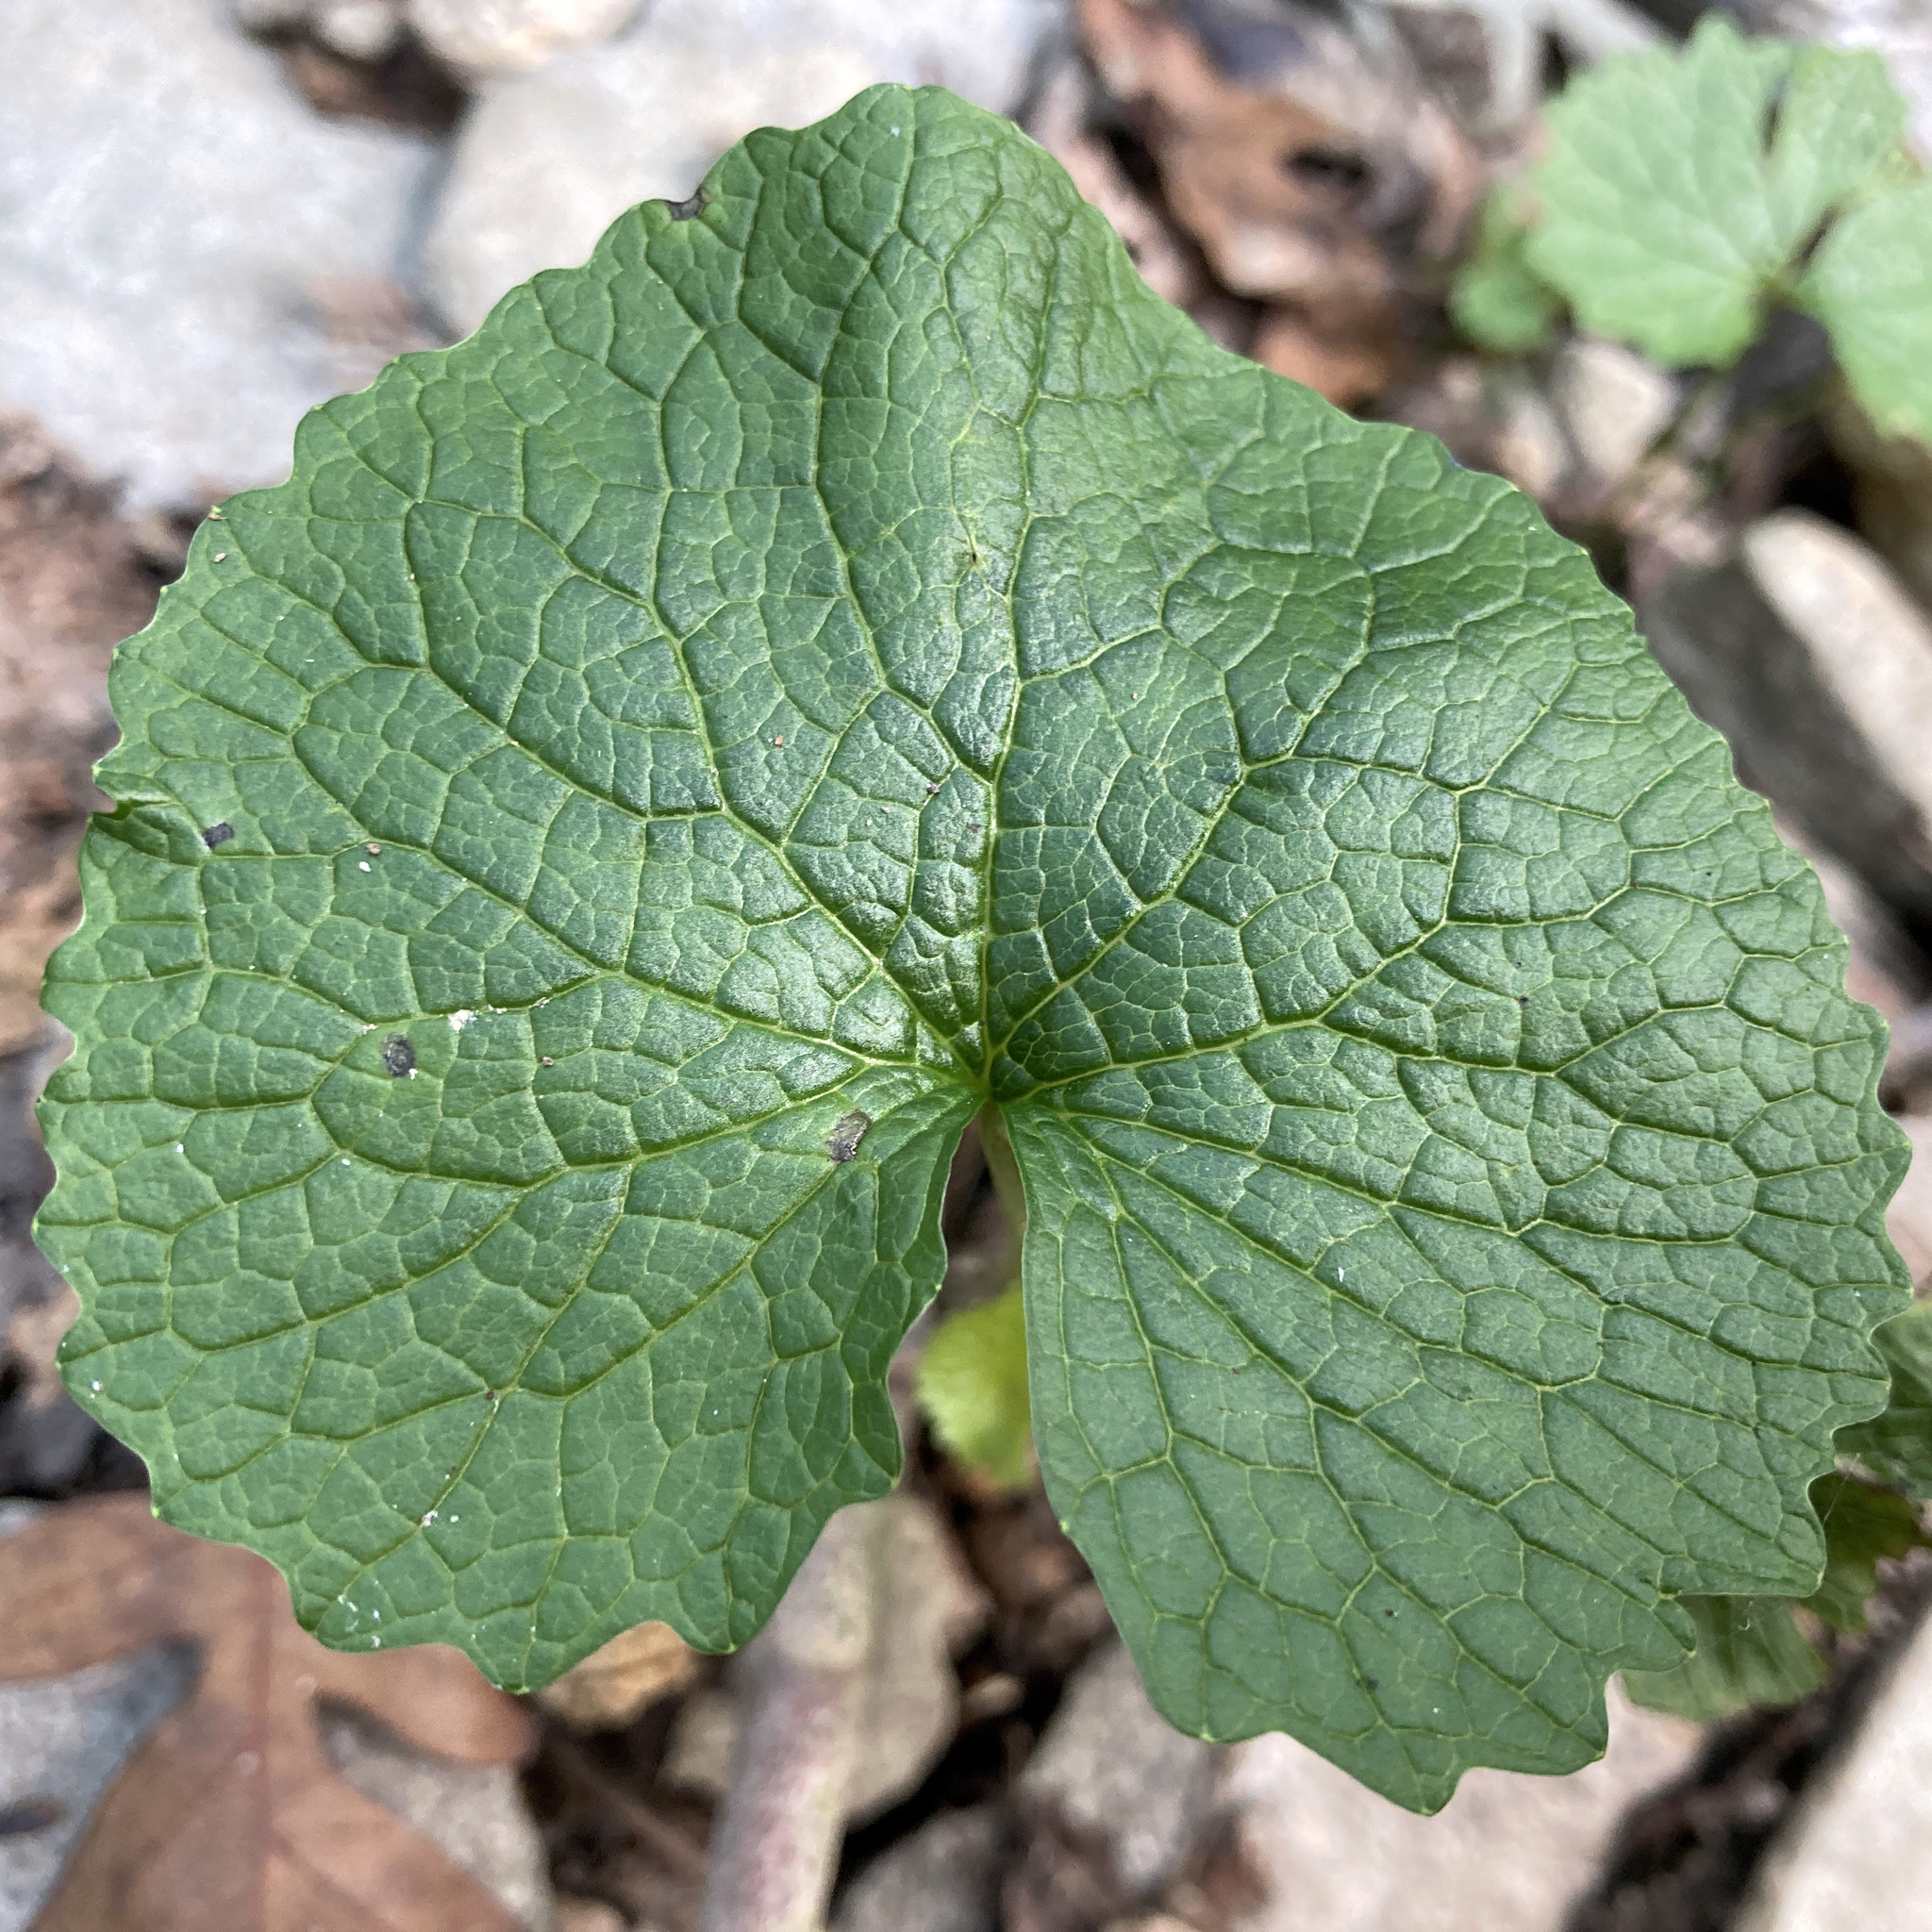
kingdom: Plantae
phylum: Tracheophyta
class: Magnoliopsida
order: Brassicales
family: Brassicaceae
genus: Alliaria
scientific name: Alliaria petiolata
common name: Garlic mustard
